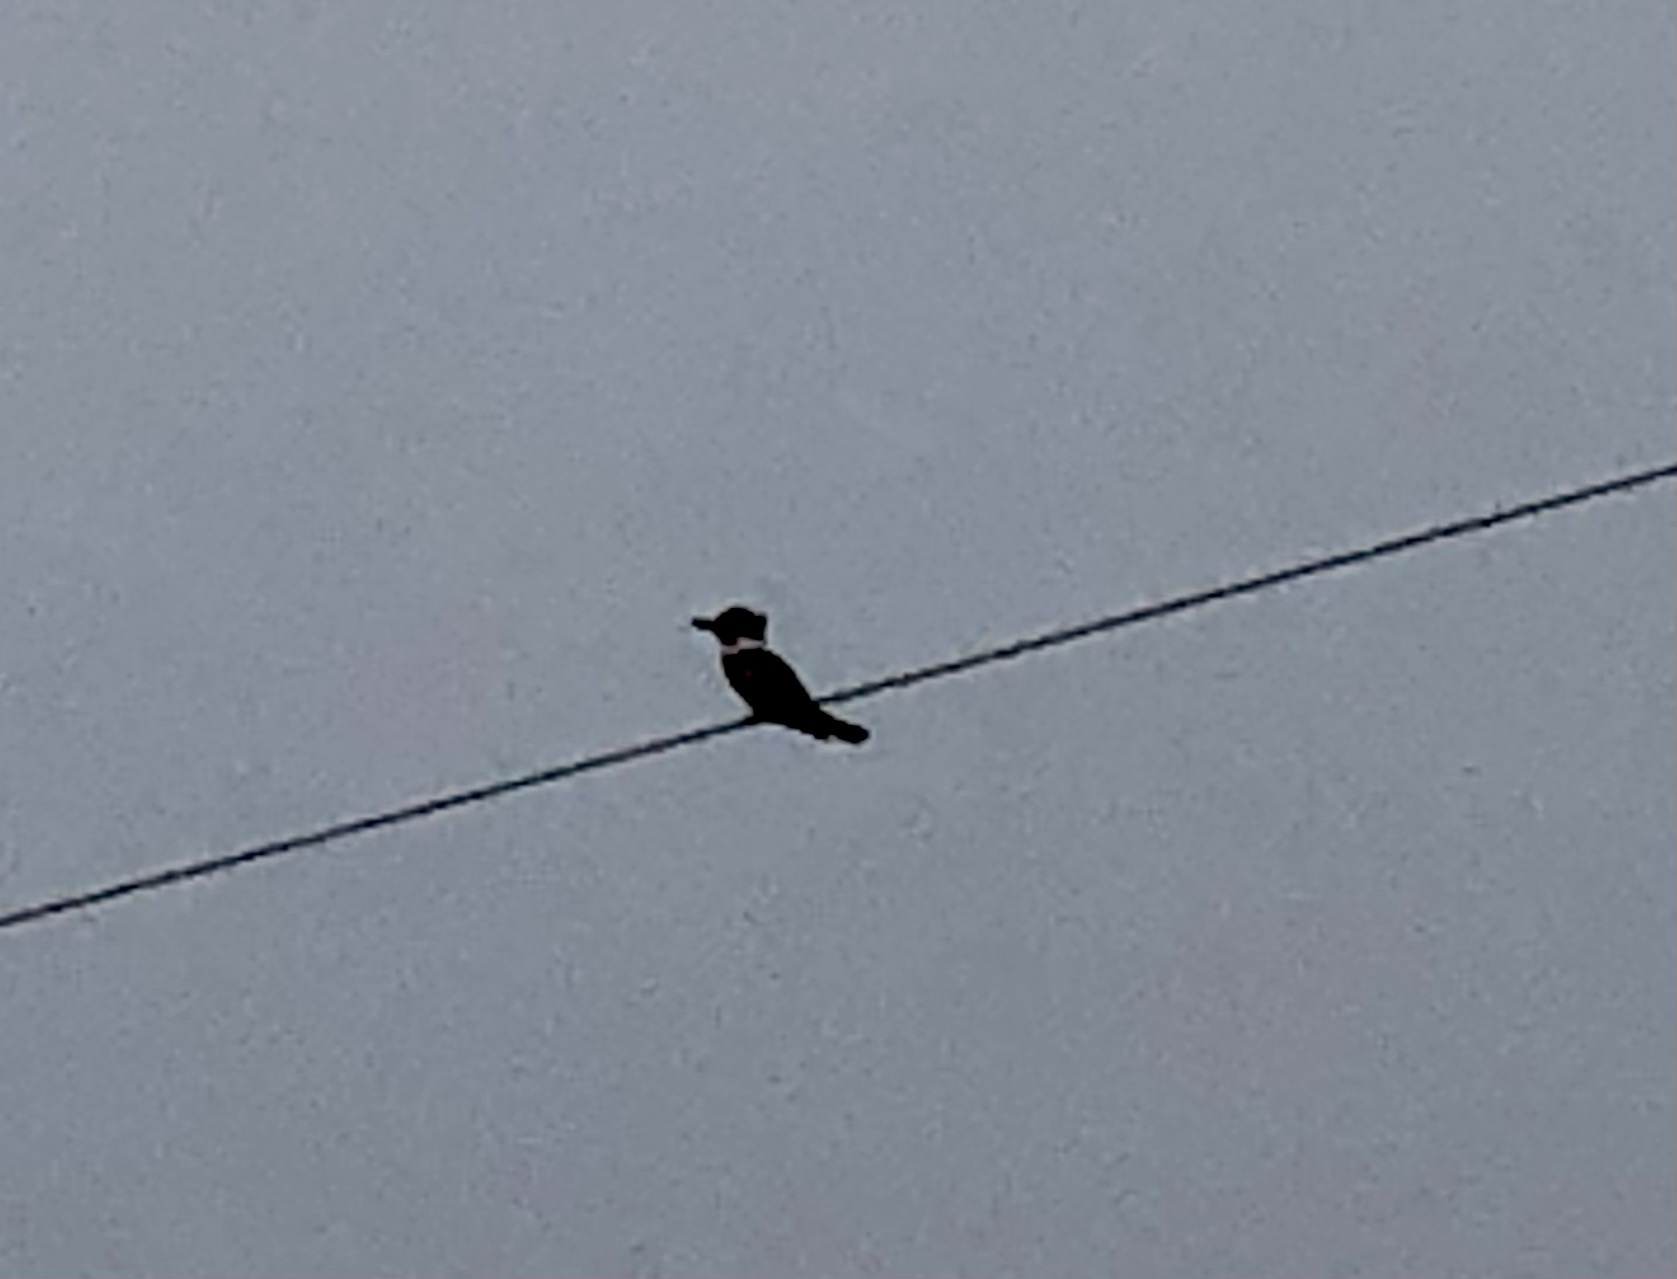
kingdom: Animalia
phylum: Chordata
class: Aves
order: Coraciiformes
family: Alcedinidae
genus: Megaceryle
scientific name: Megaceryle alcyon
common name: Belted kingfisher
